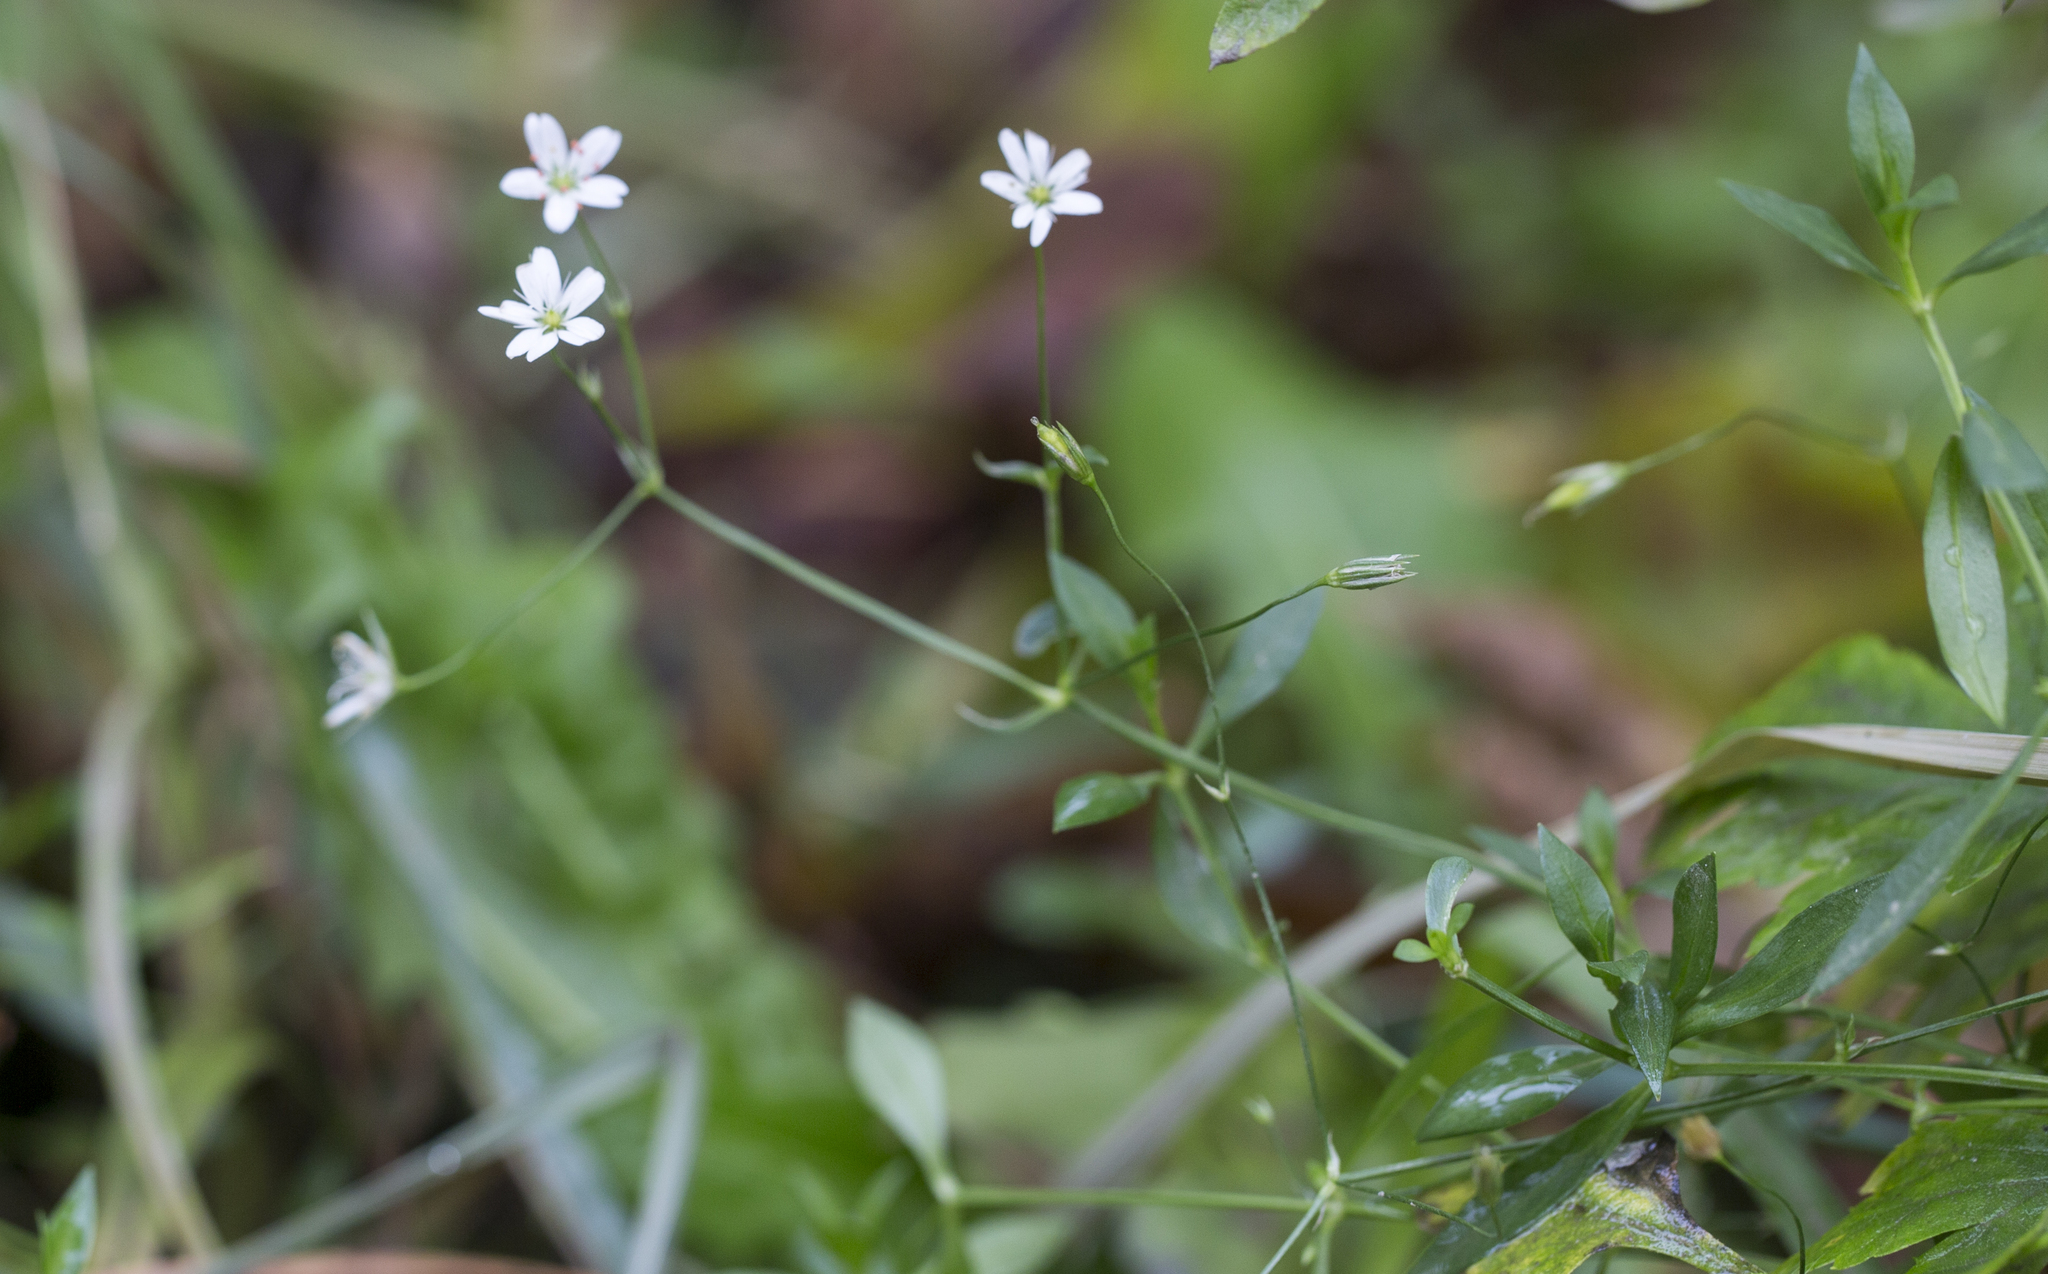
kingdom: Plantae
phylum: Tracheophyta
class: Magnoliopsida
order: Caryophyllales
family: Caryophyllaceae
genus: Stellaria
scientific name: Stellaria graminea
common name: Grass-like starwort
